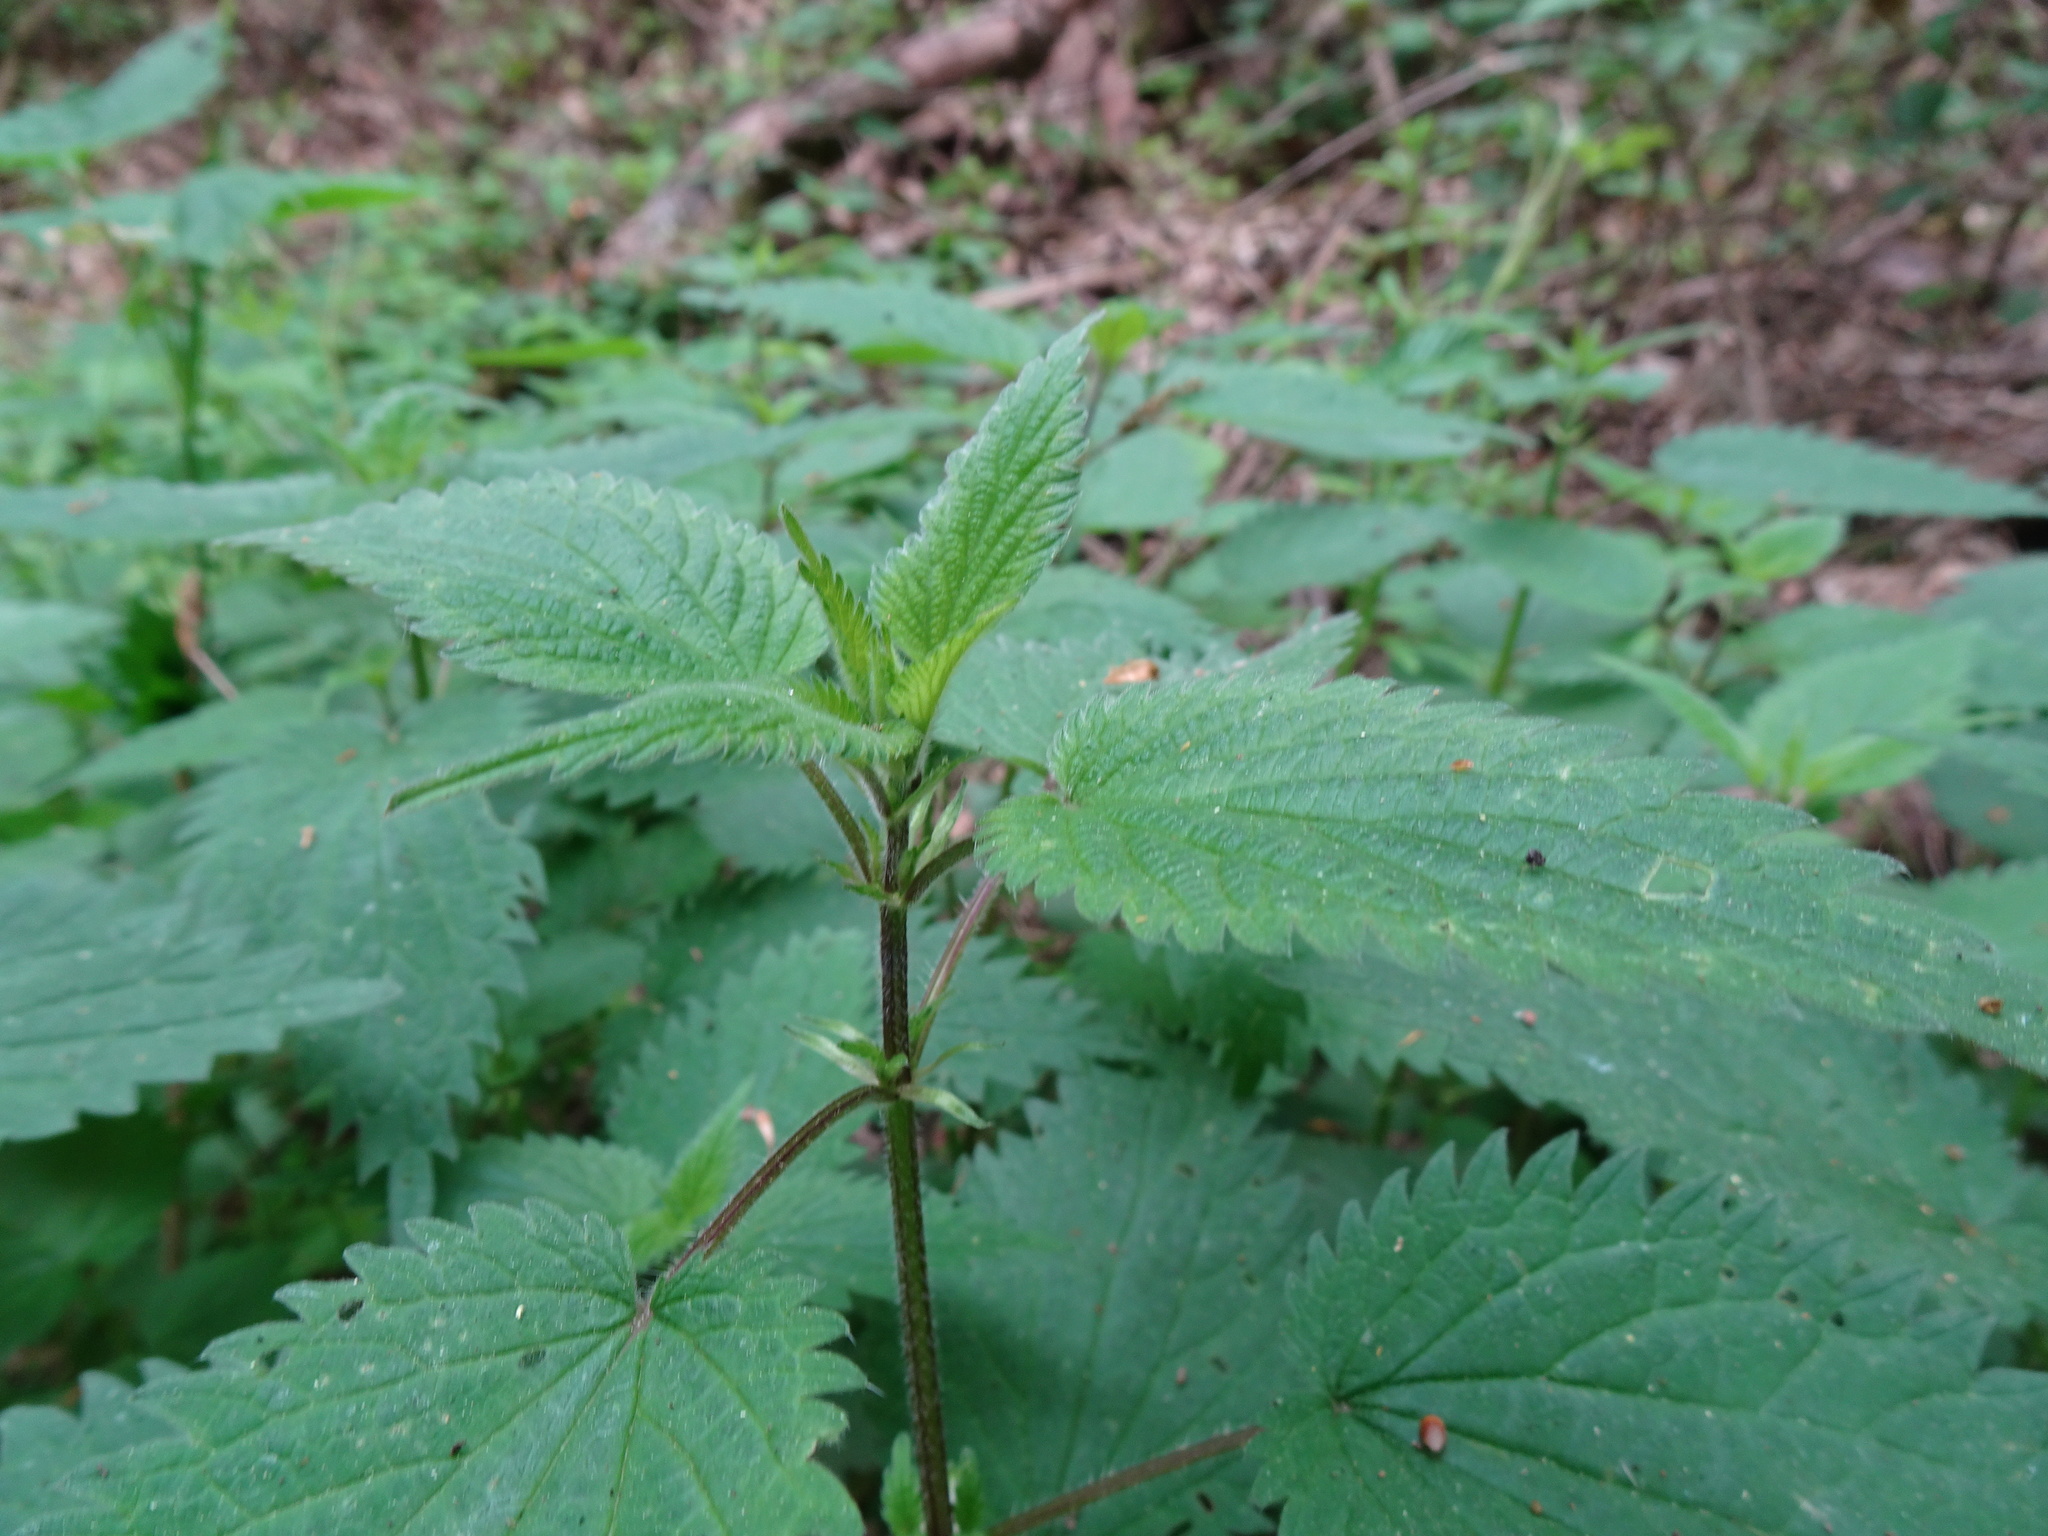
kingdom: Plantae
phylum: Tracheophyta
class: Magnoliopsida
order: Rosales
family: Urticaceae
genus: Urtica
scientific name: Urtica dioica
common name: Common nettle
